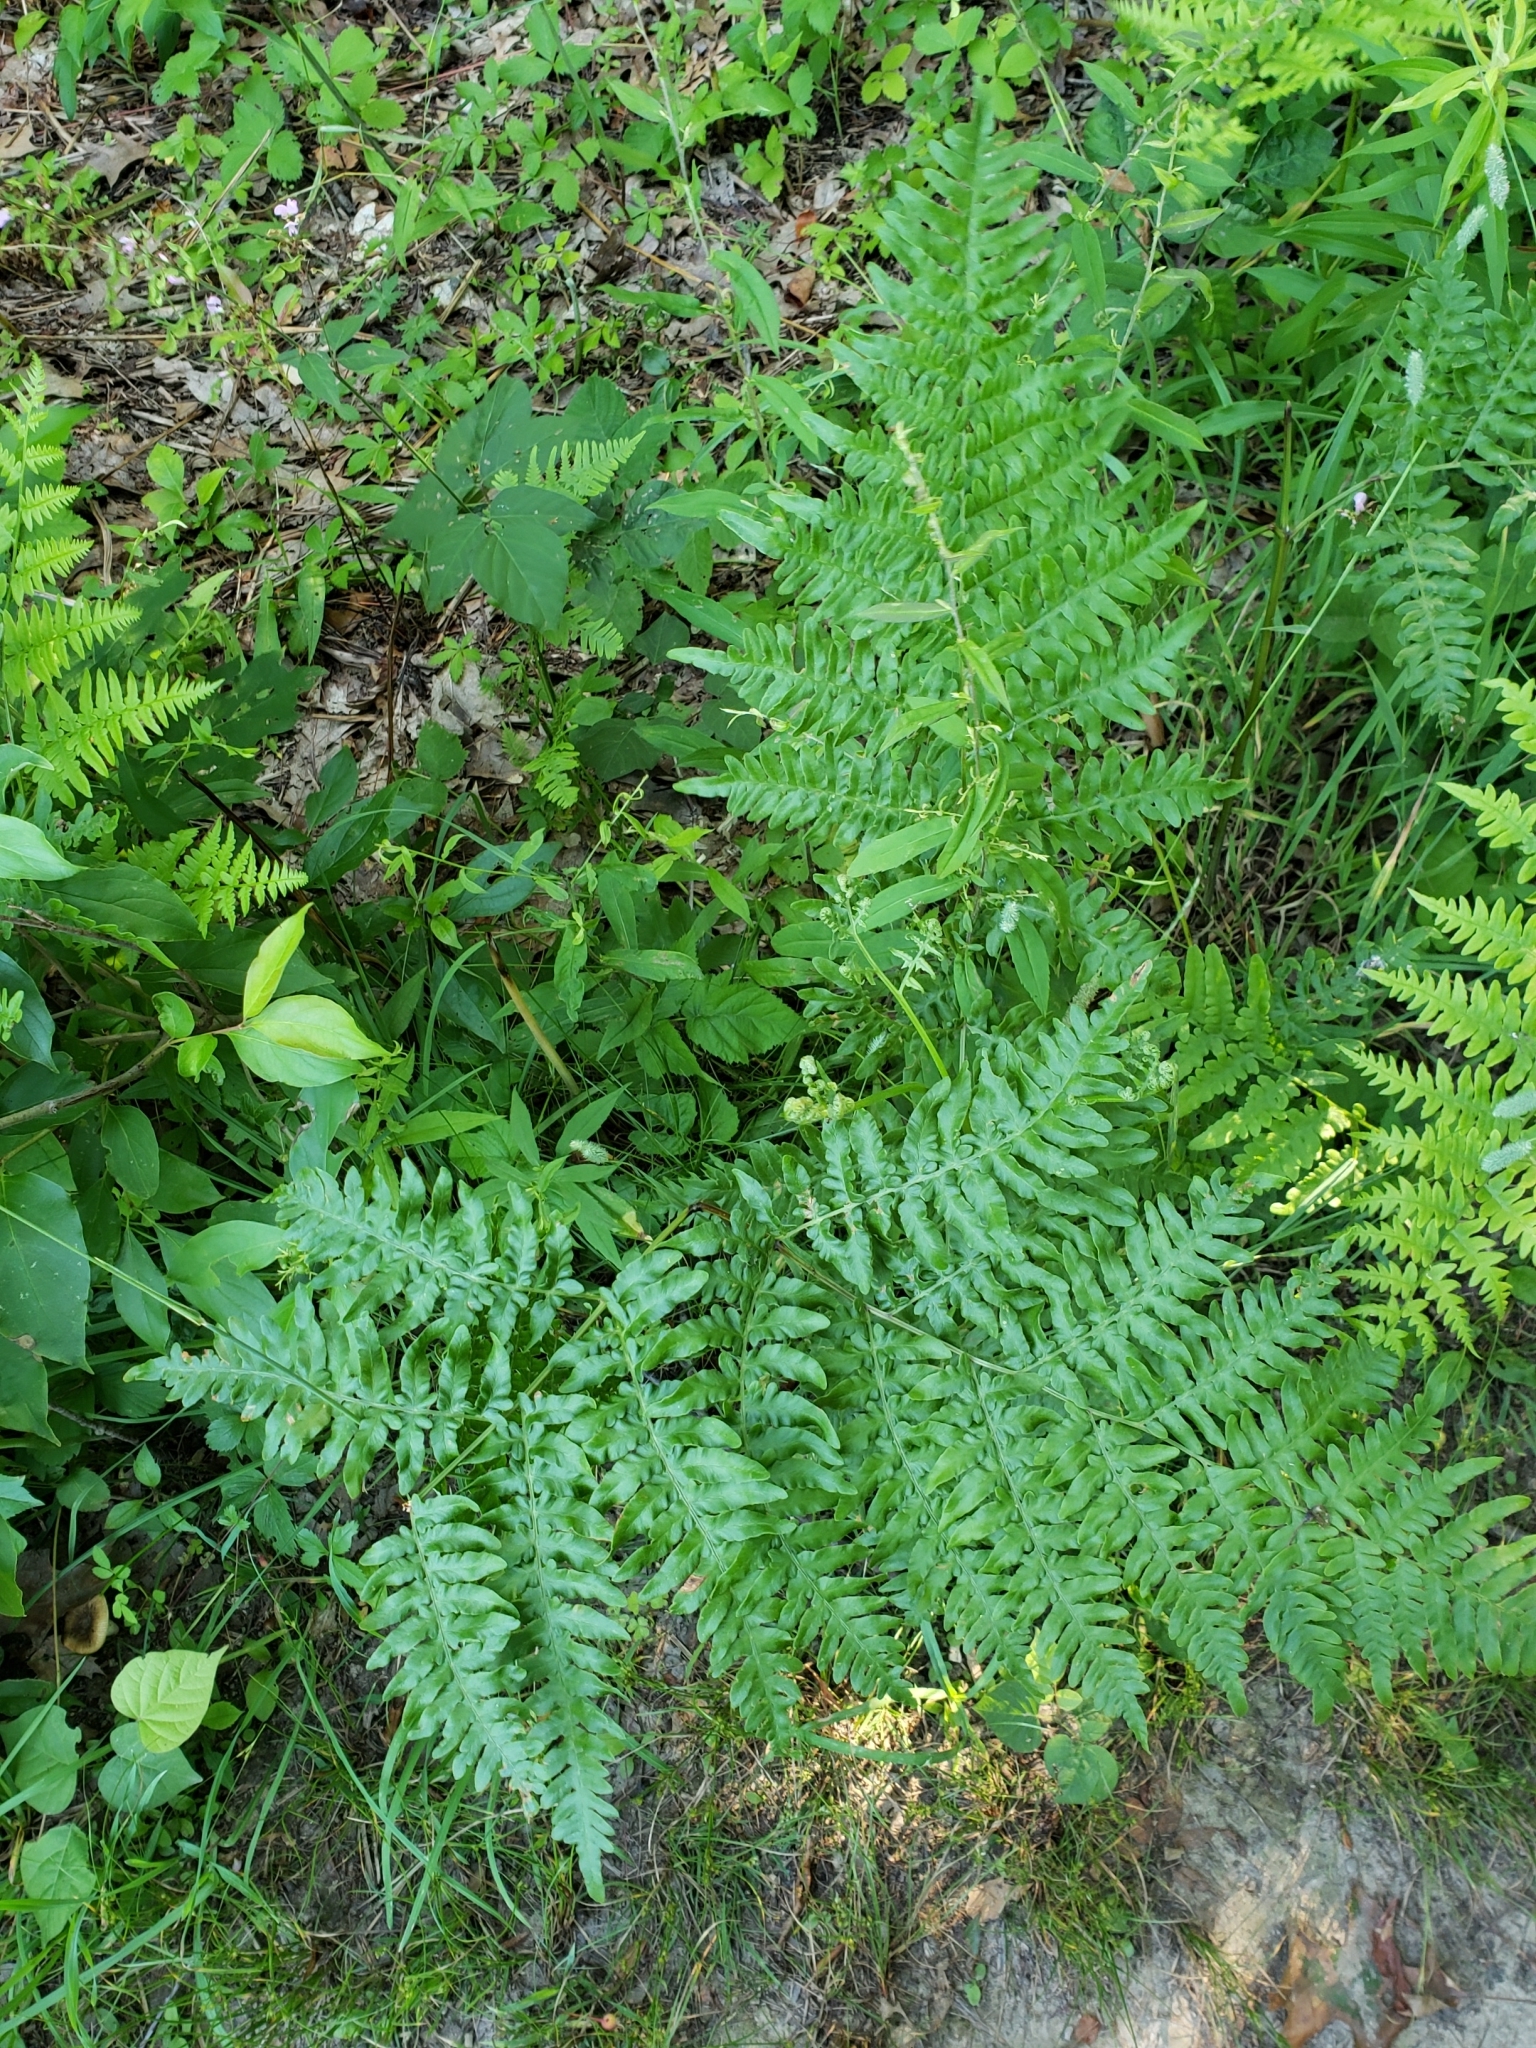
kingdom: Plantae
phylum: Tracheophyta
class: Polypodiopsida
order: Polypodiales
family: Dennstaedtiaceae
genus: Pteridium
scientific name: Pteridium aquilinum
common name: Bracken
